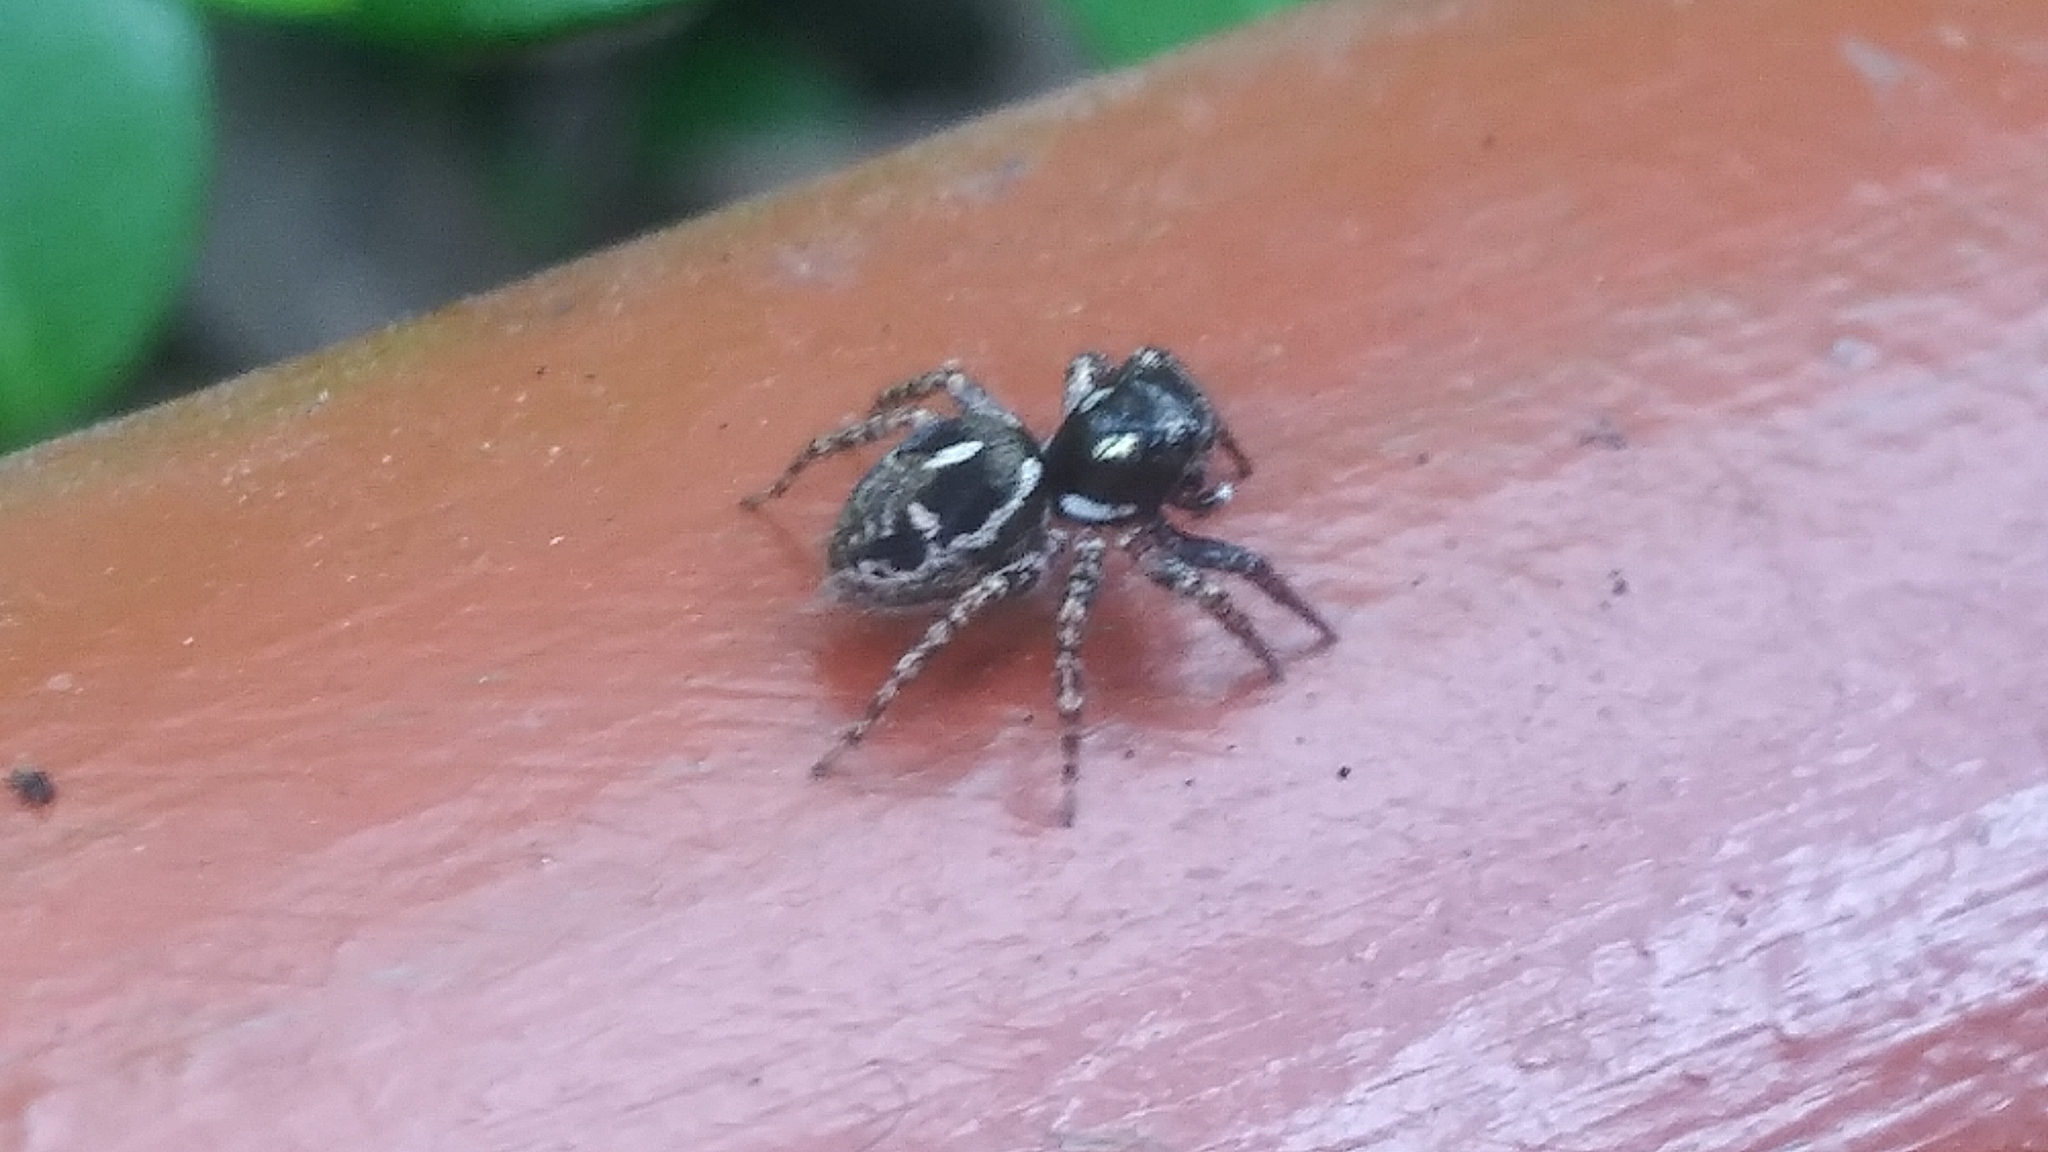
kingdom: Animalia
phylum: Arthropoda
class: Arachnida
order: Araneae
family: Salticidae
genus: Anasaitis
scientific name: Anasaitis canosa
